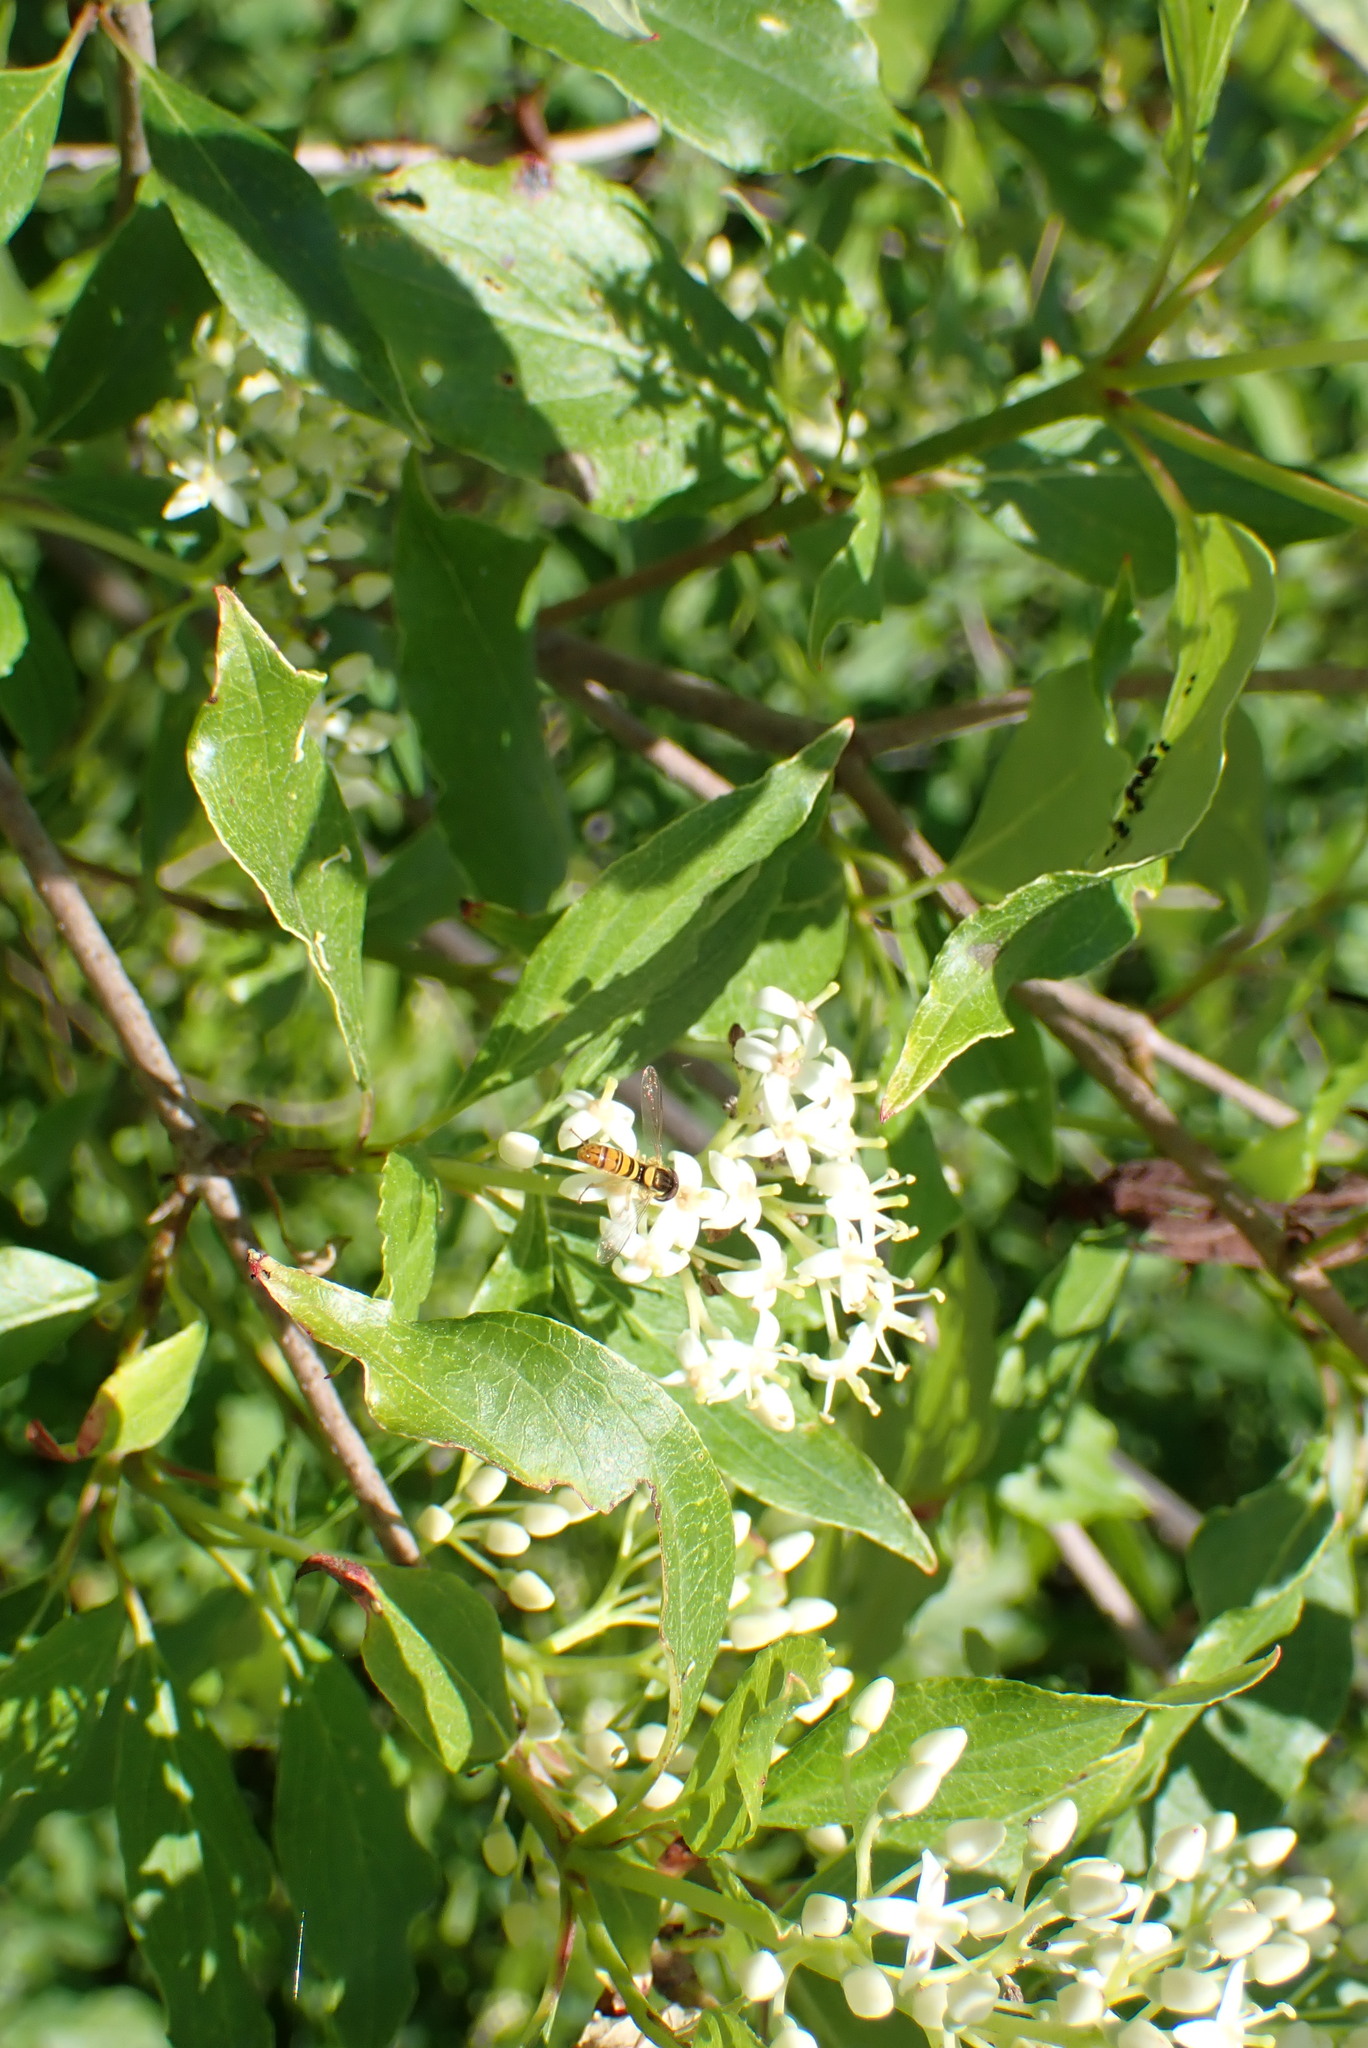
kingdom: Animalia
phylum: Arthropoda
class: Insecta
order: Diptera
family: Syrphidae
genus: Sphaerophoria
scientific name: Sphaerophoria
